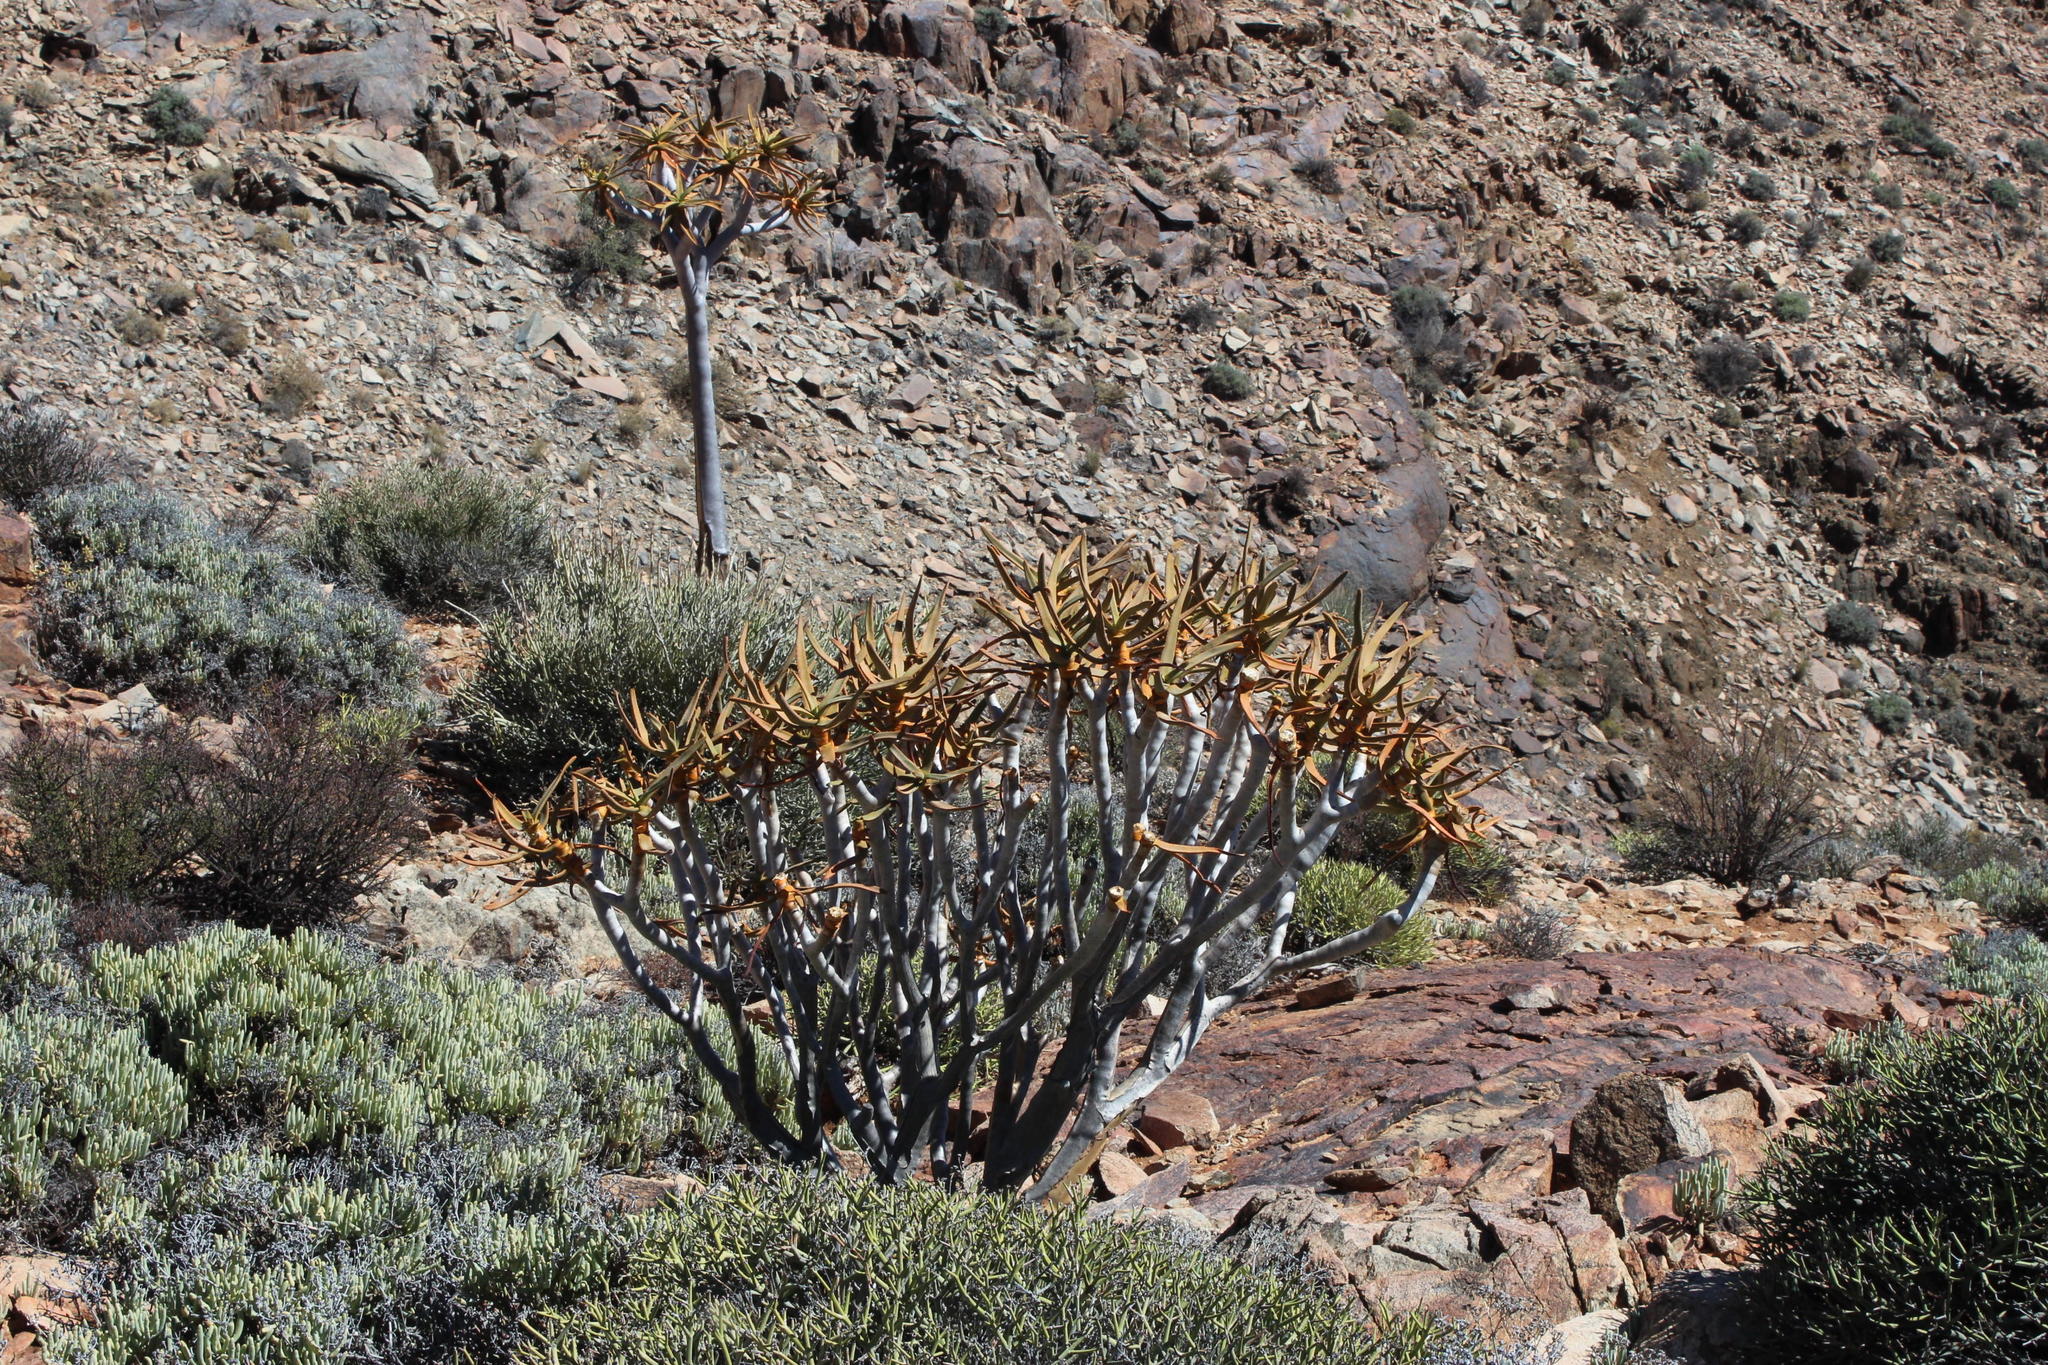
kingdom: Plantae
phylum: Tracheophyta
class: Liliopsida
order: Asparagales
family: Asphodelaceae
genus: Aloidendron
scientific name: Aloidendron dichotomum
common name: Quiver tree
